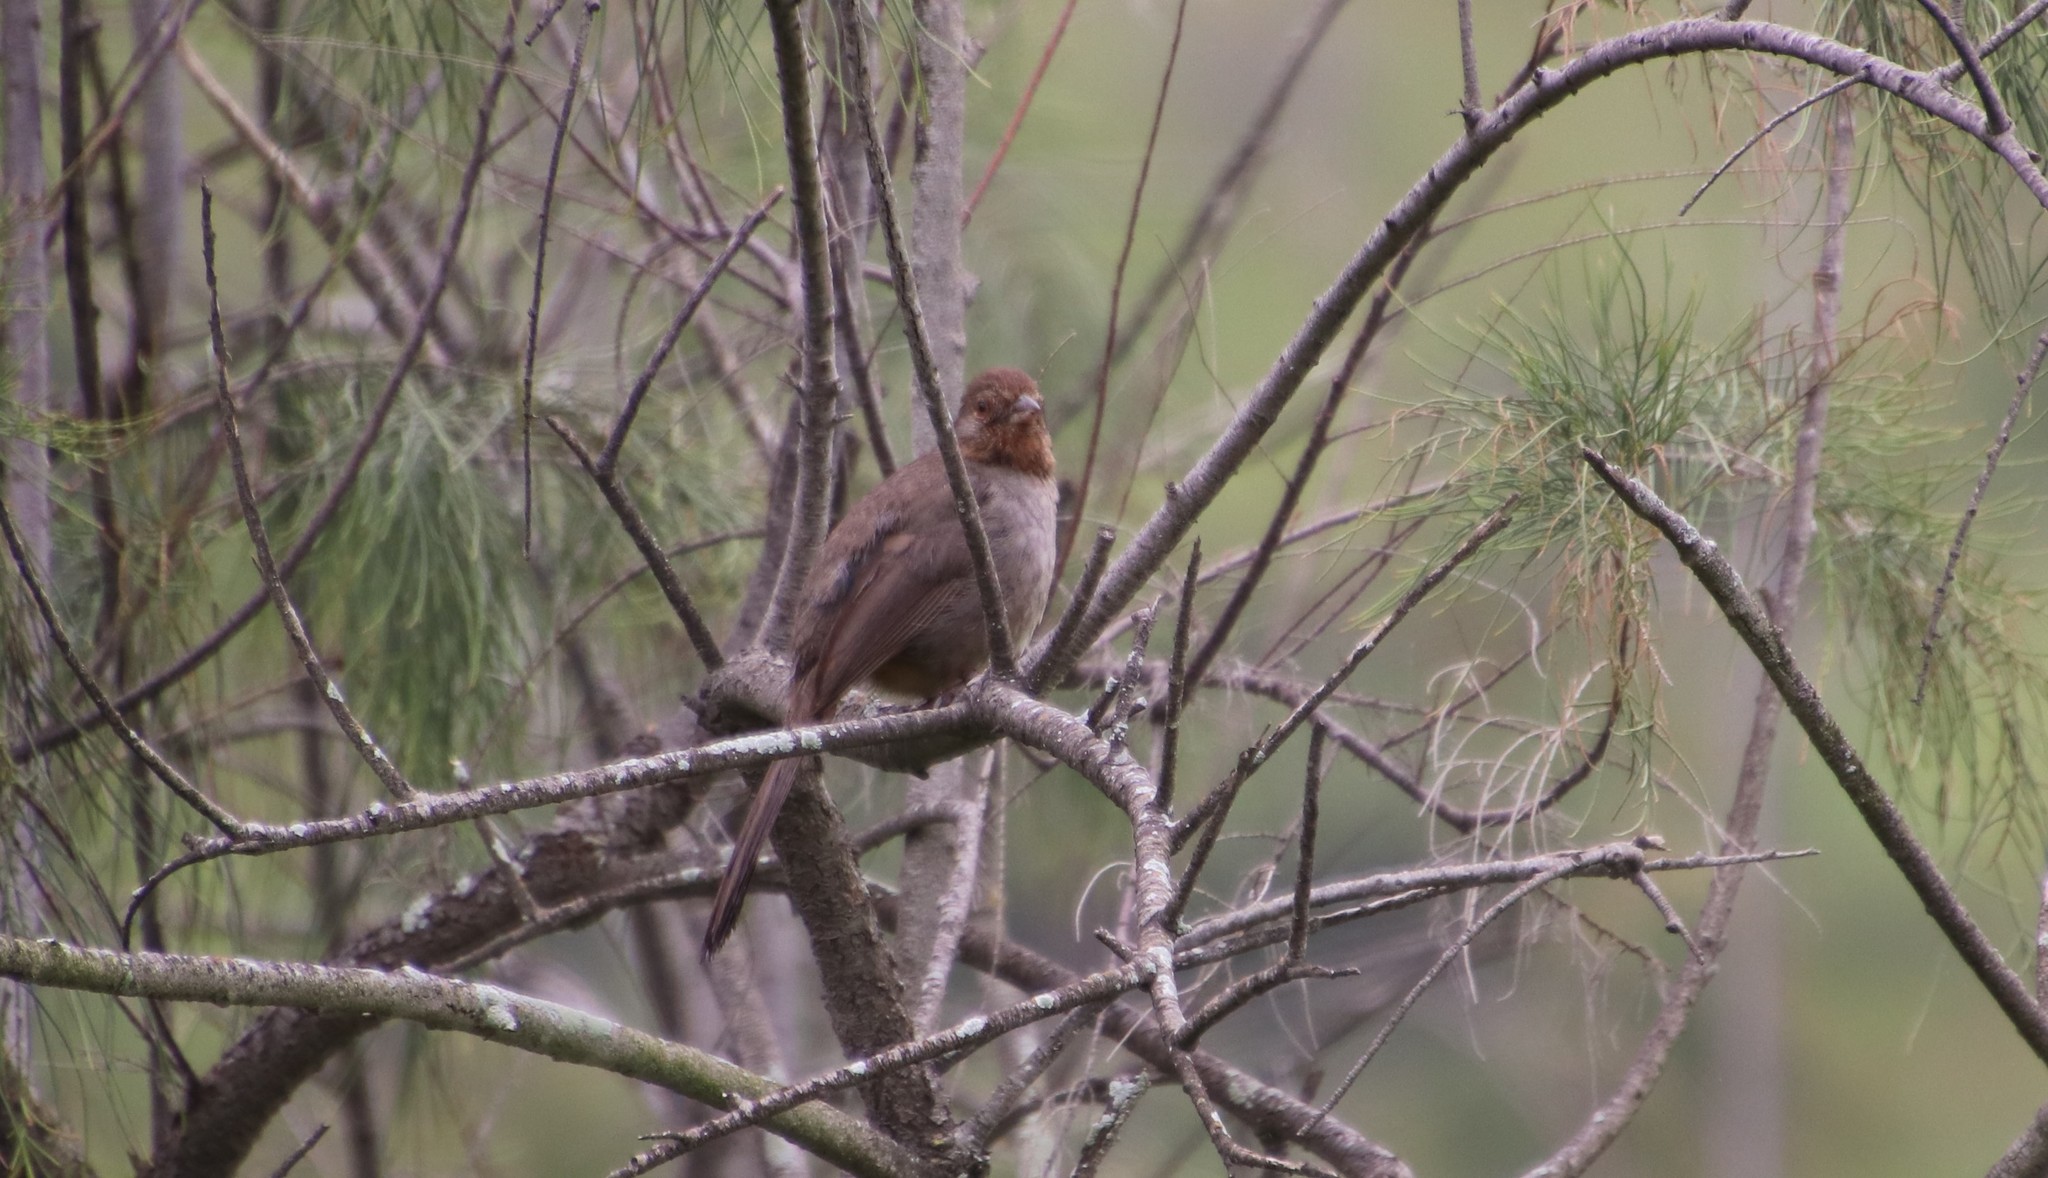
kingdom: Animalia
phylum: Chordata
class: Aves
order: Passeriformes
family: Passerellidae
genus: Melozone
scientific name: Melozone crissalis
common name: California towhee
